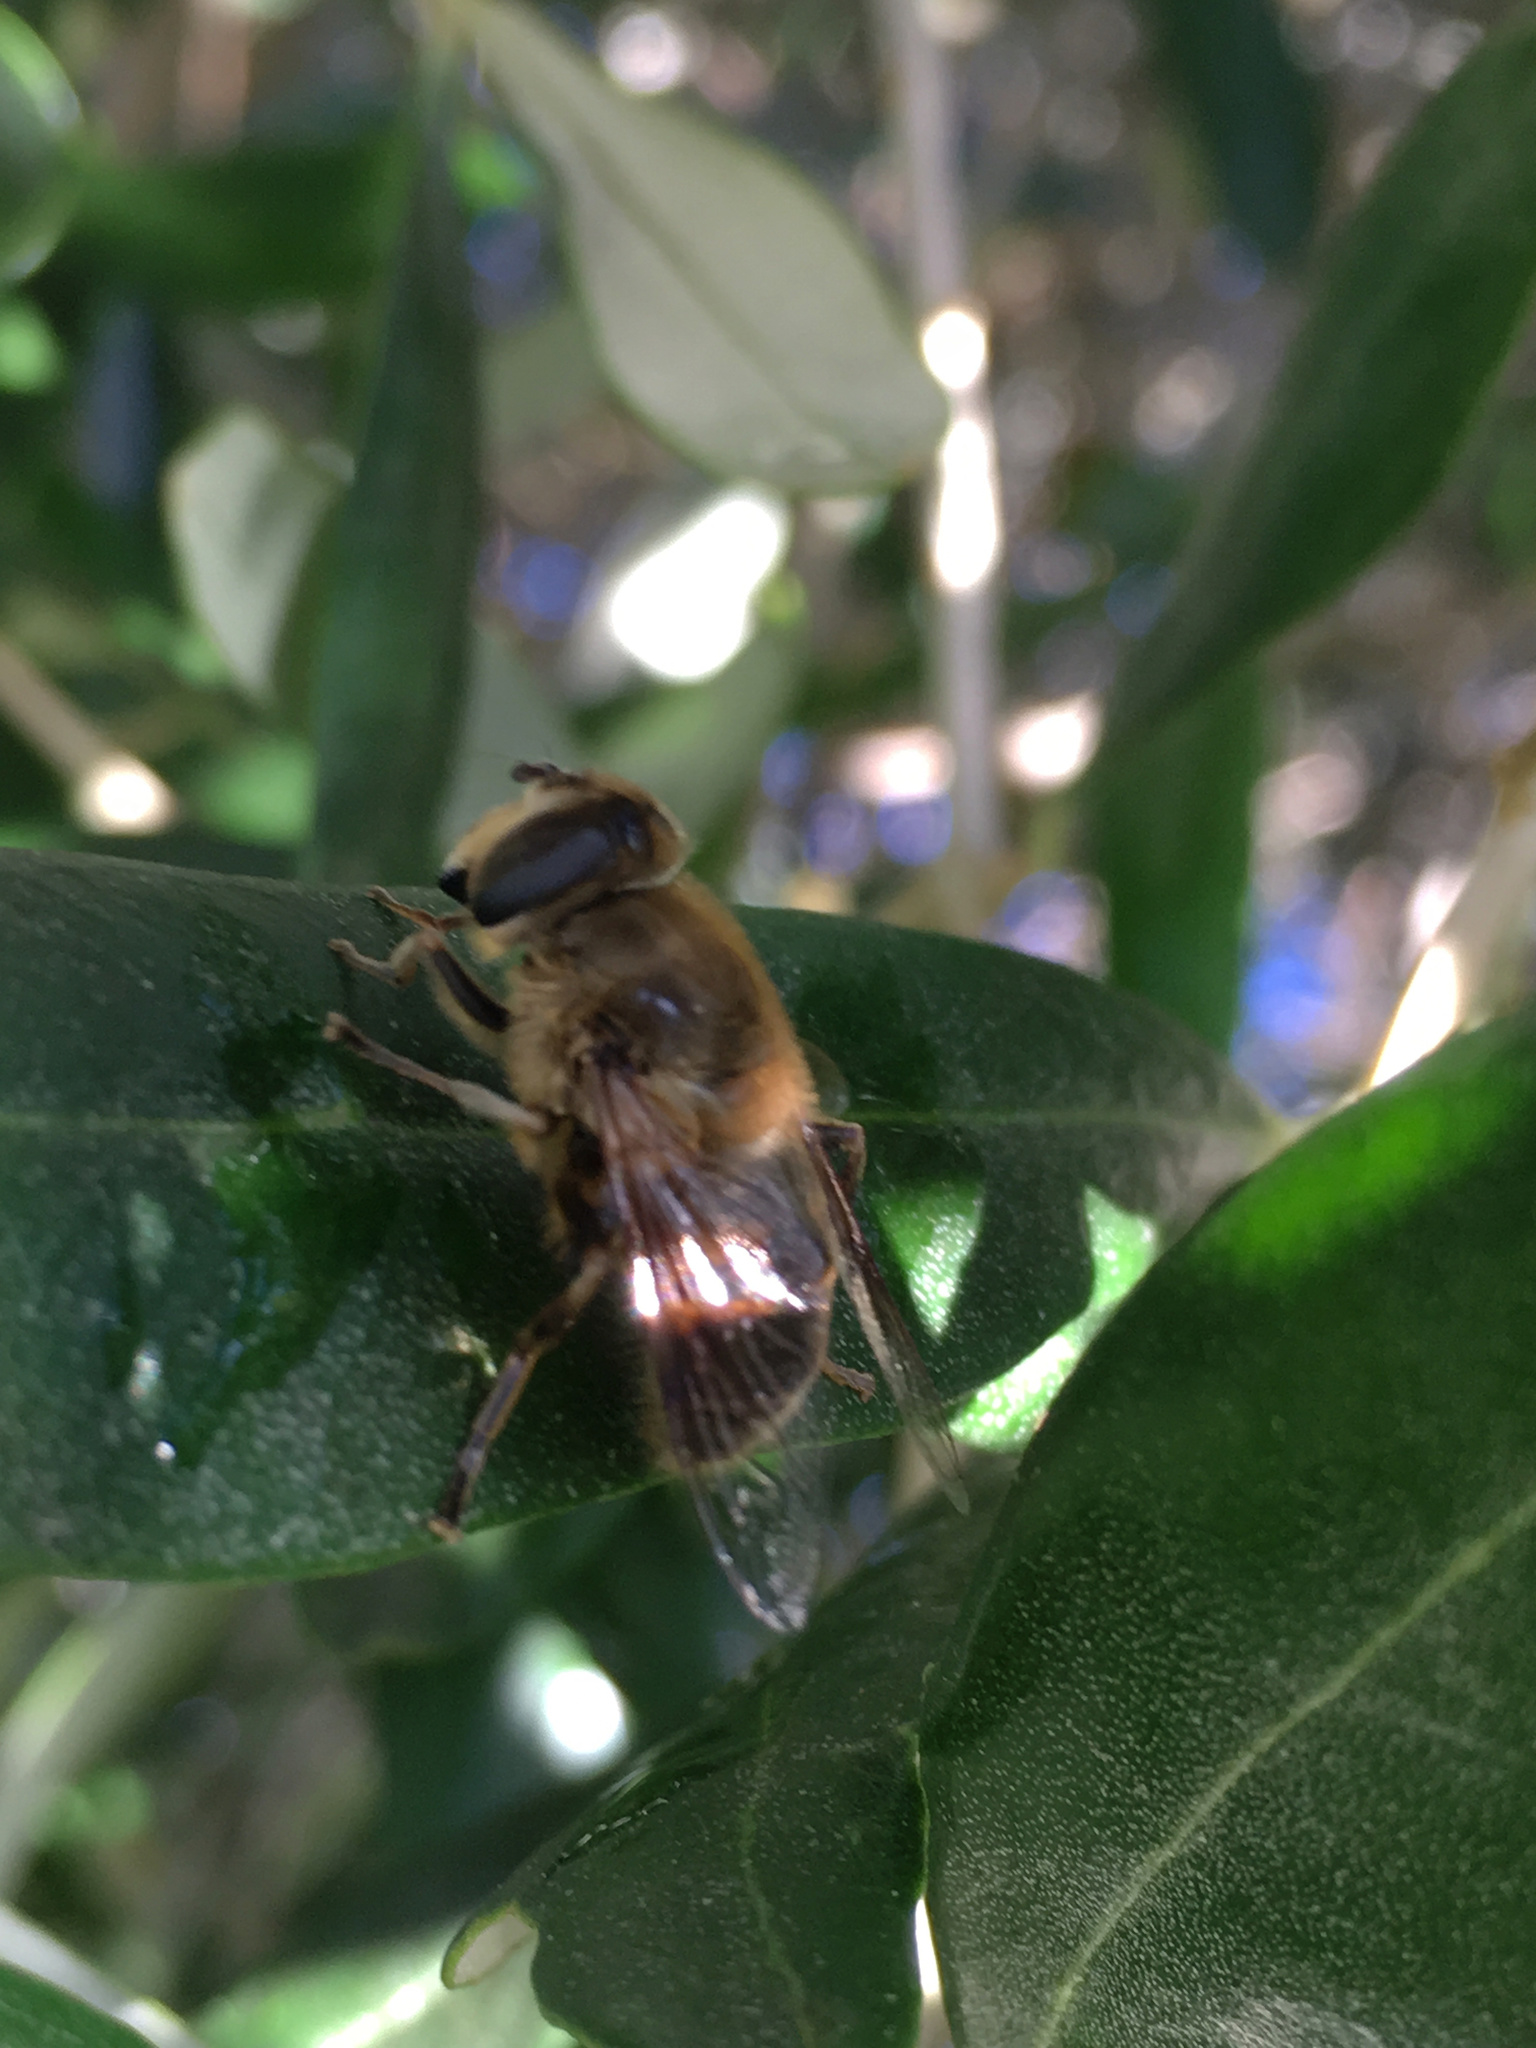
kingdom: Animalia
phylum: Arthropoda
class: Insecta
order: Diptera
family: Syrphidae
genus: Eristalis
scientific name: Eristalis tenax
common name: Drone fly
